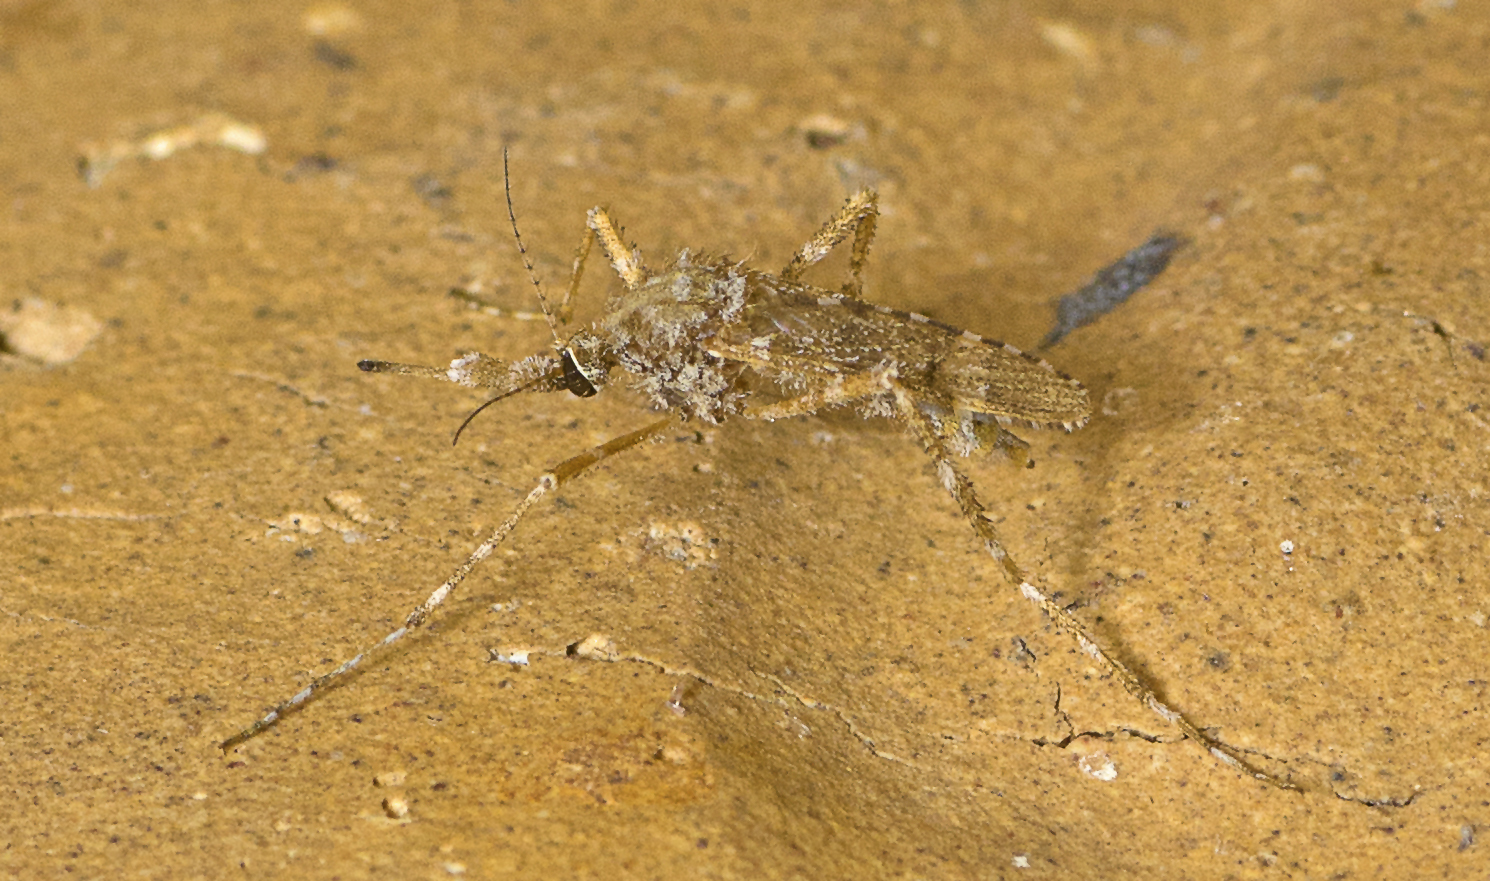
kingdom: Animalia
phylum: Arthropoda
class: Insecta
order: Diptera
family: Culicidae
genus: Aedes
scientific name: Aedes alternans
